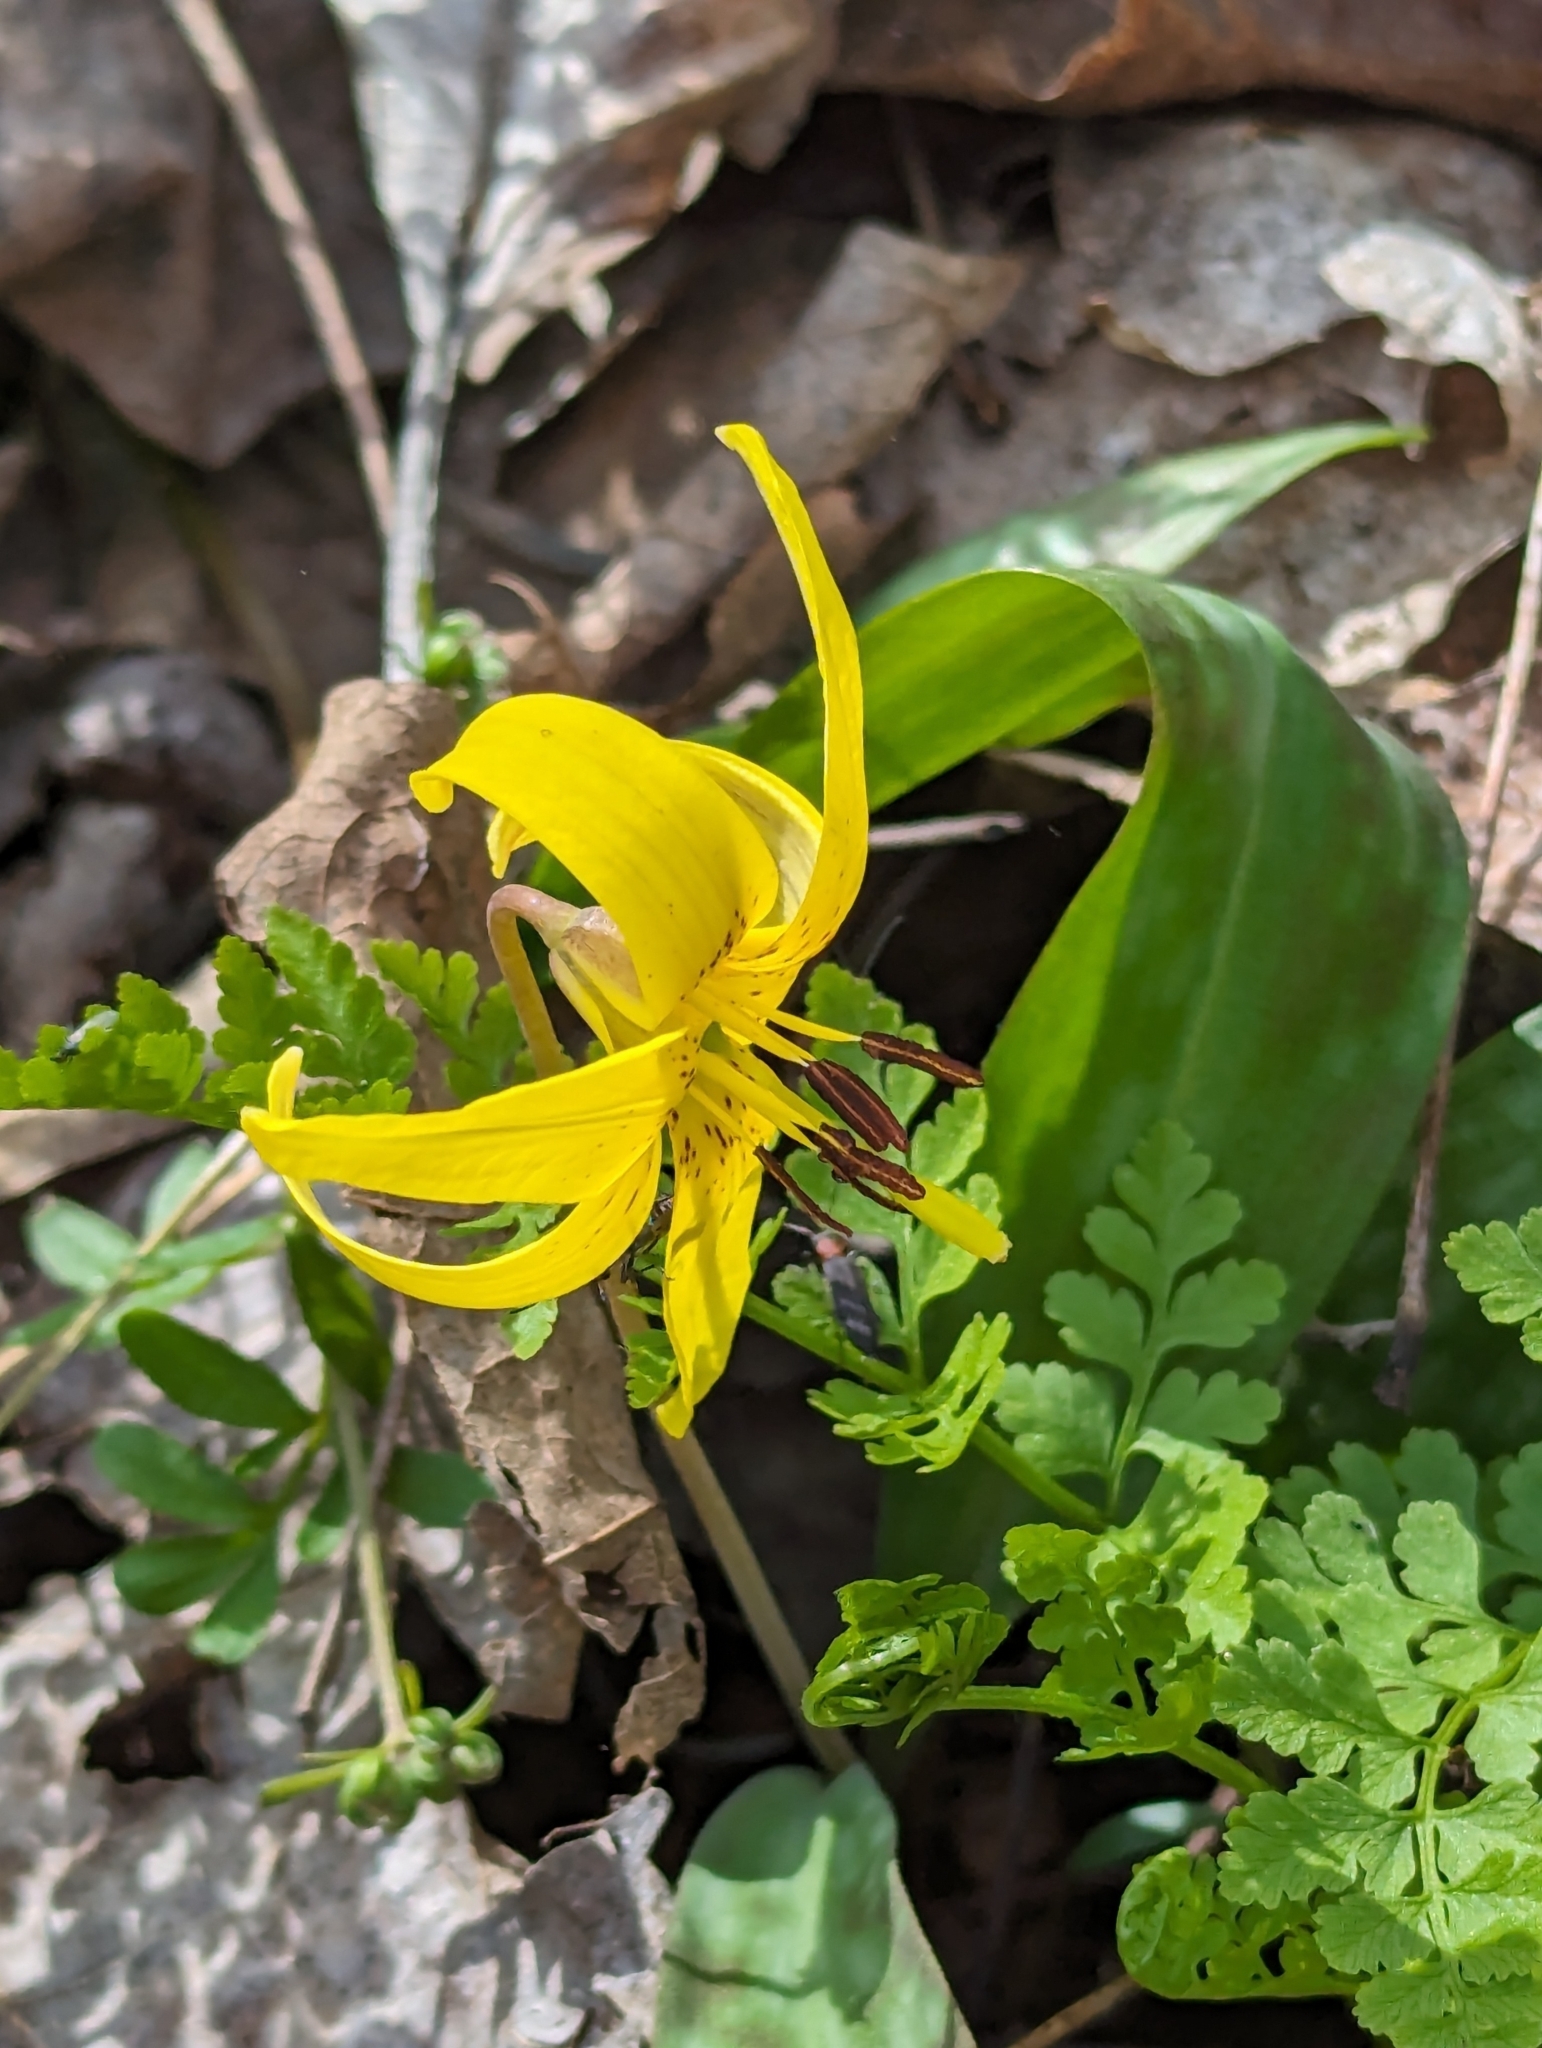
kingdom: Plantae
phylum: Tracheophyta
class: Liliopsida
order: Liliales
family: Liliaceae
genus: Erythronium
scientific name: Erythronium americanum
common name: Yellow adder's-tongue
